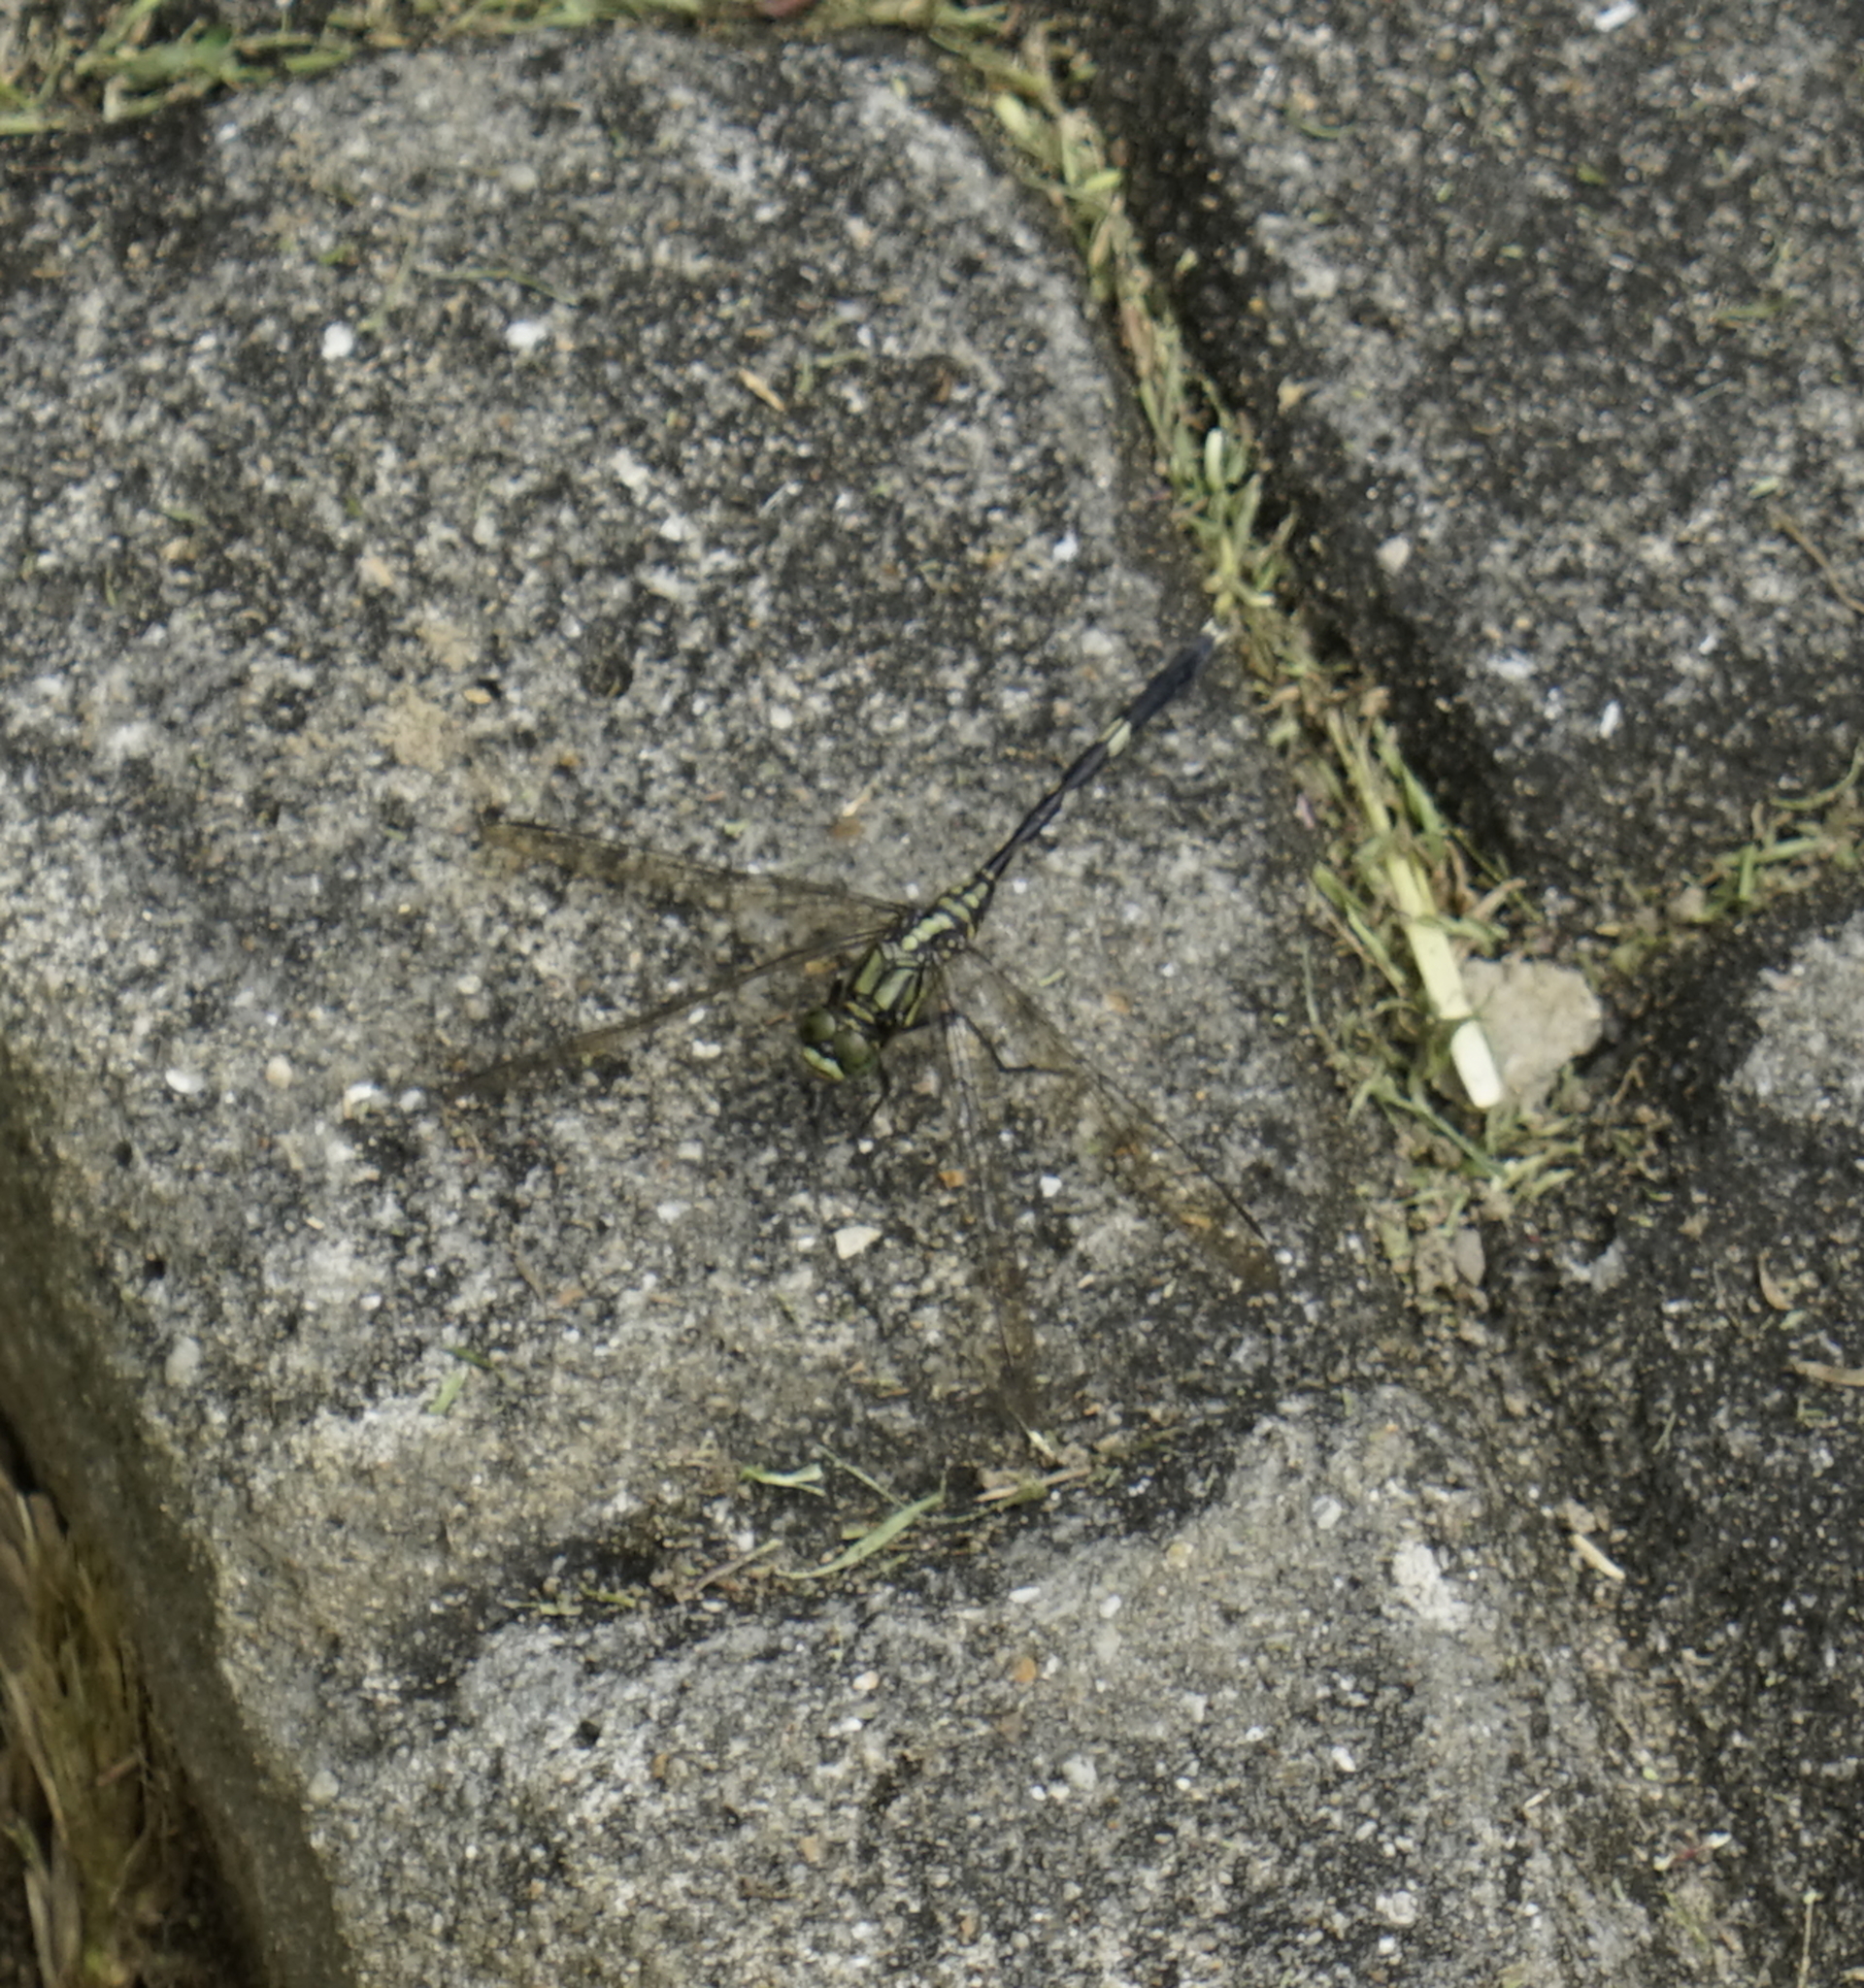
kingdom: Animalia
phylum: Arthropoda
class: Insecta
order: Odonata
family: Libellulidae
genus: Orthetrum
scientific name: Orthetrum sabina
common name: Slender skimmer
